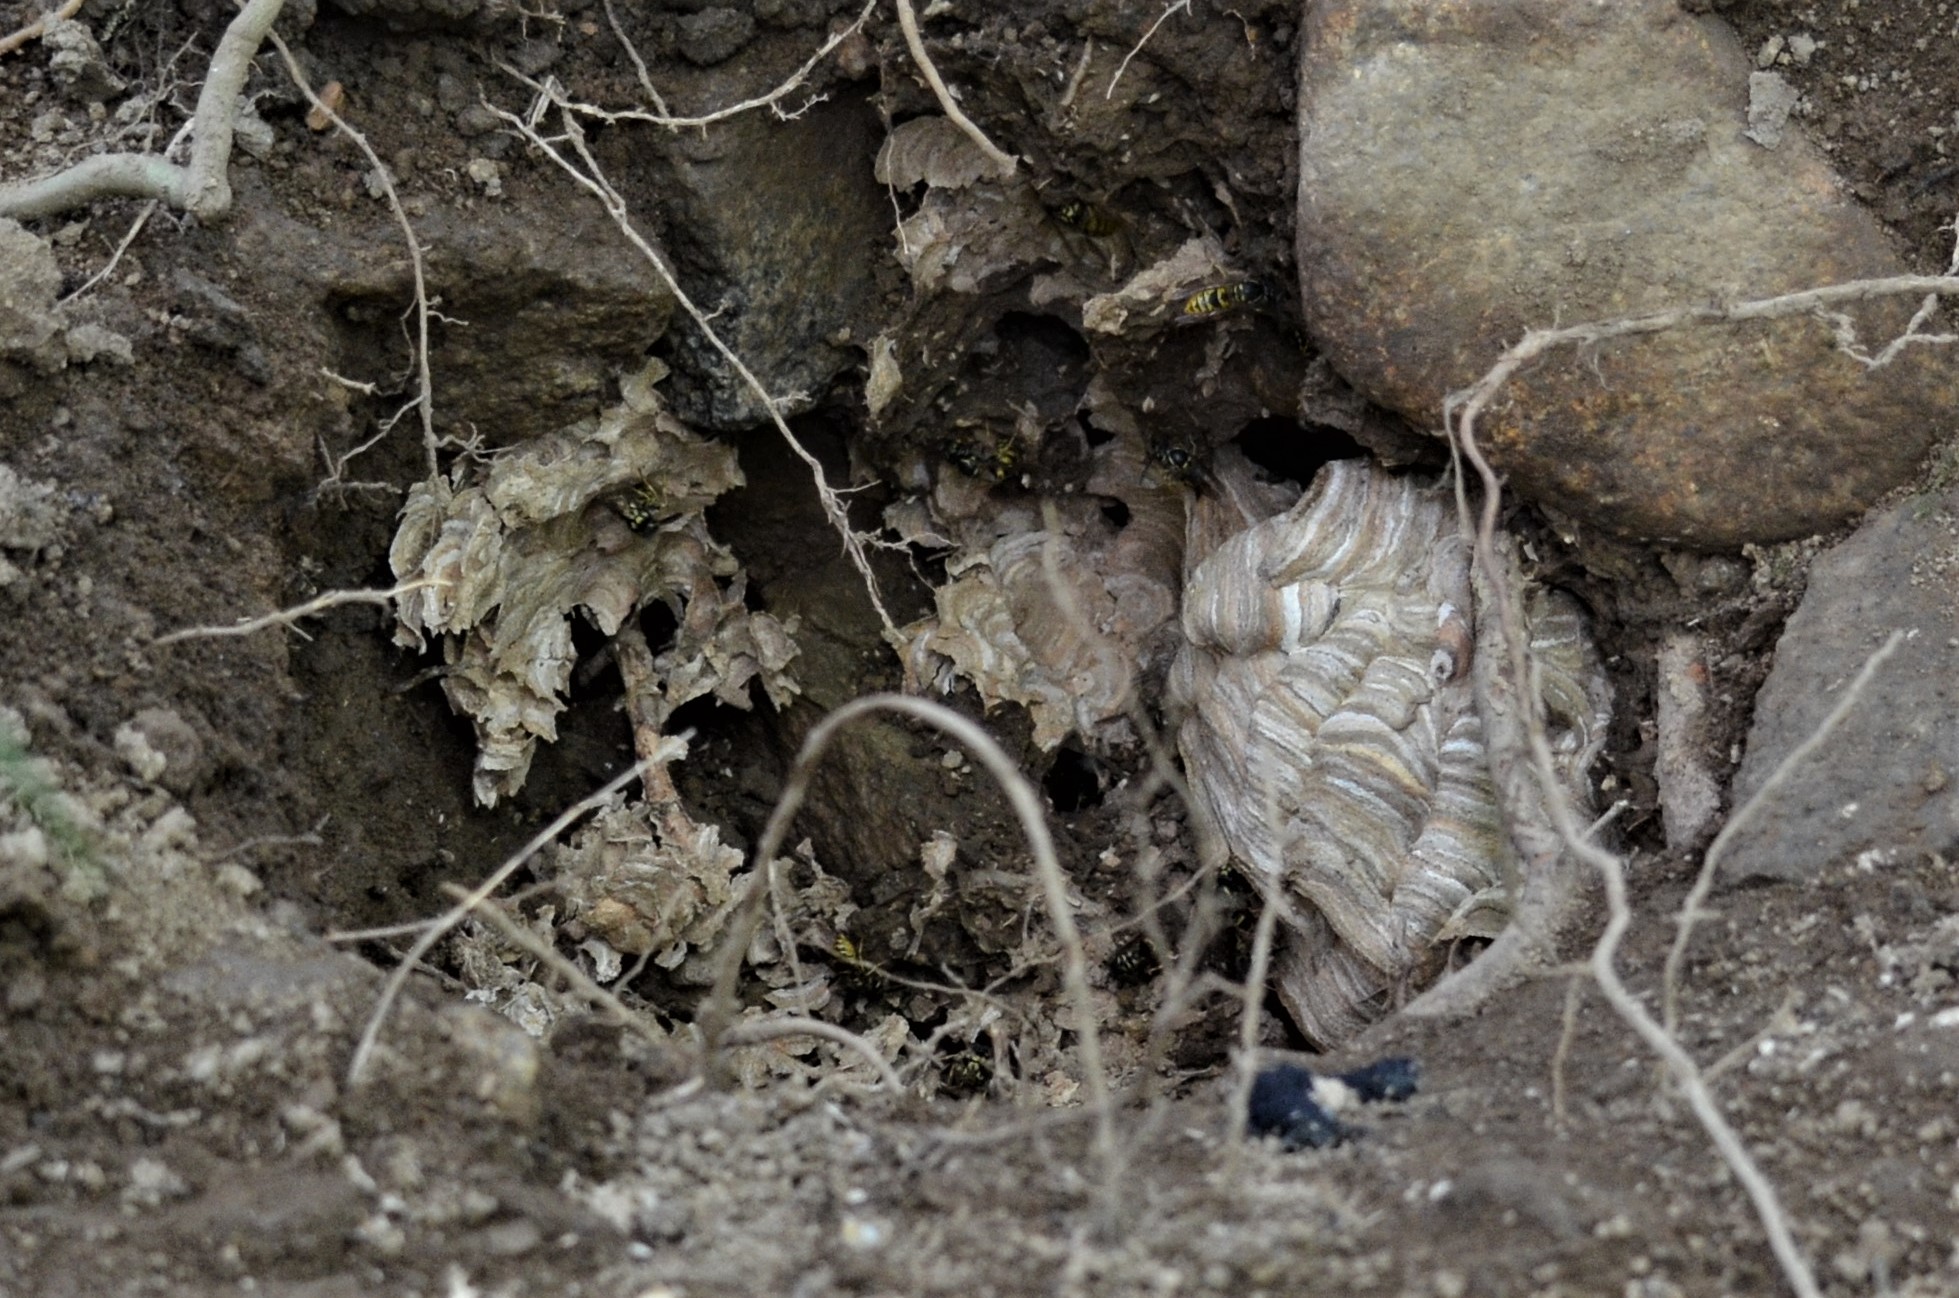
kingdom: Animalia
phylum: Arthropoda
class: Insecta
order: Hymenoptera
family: Vespidae
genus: Vespula
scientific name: Vespula vulgaris
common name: Common wasp
